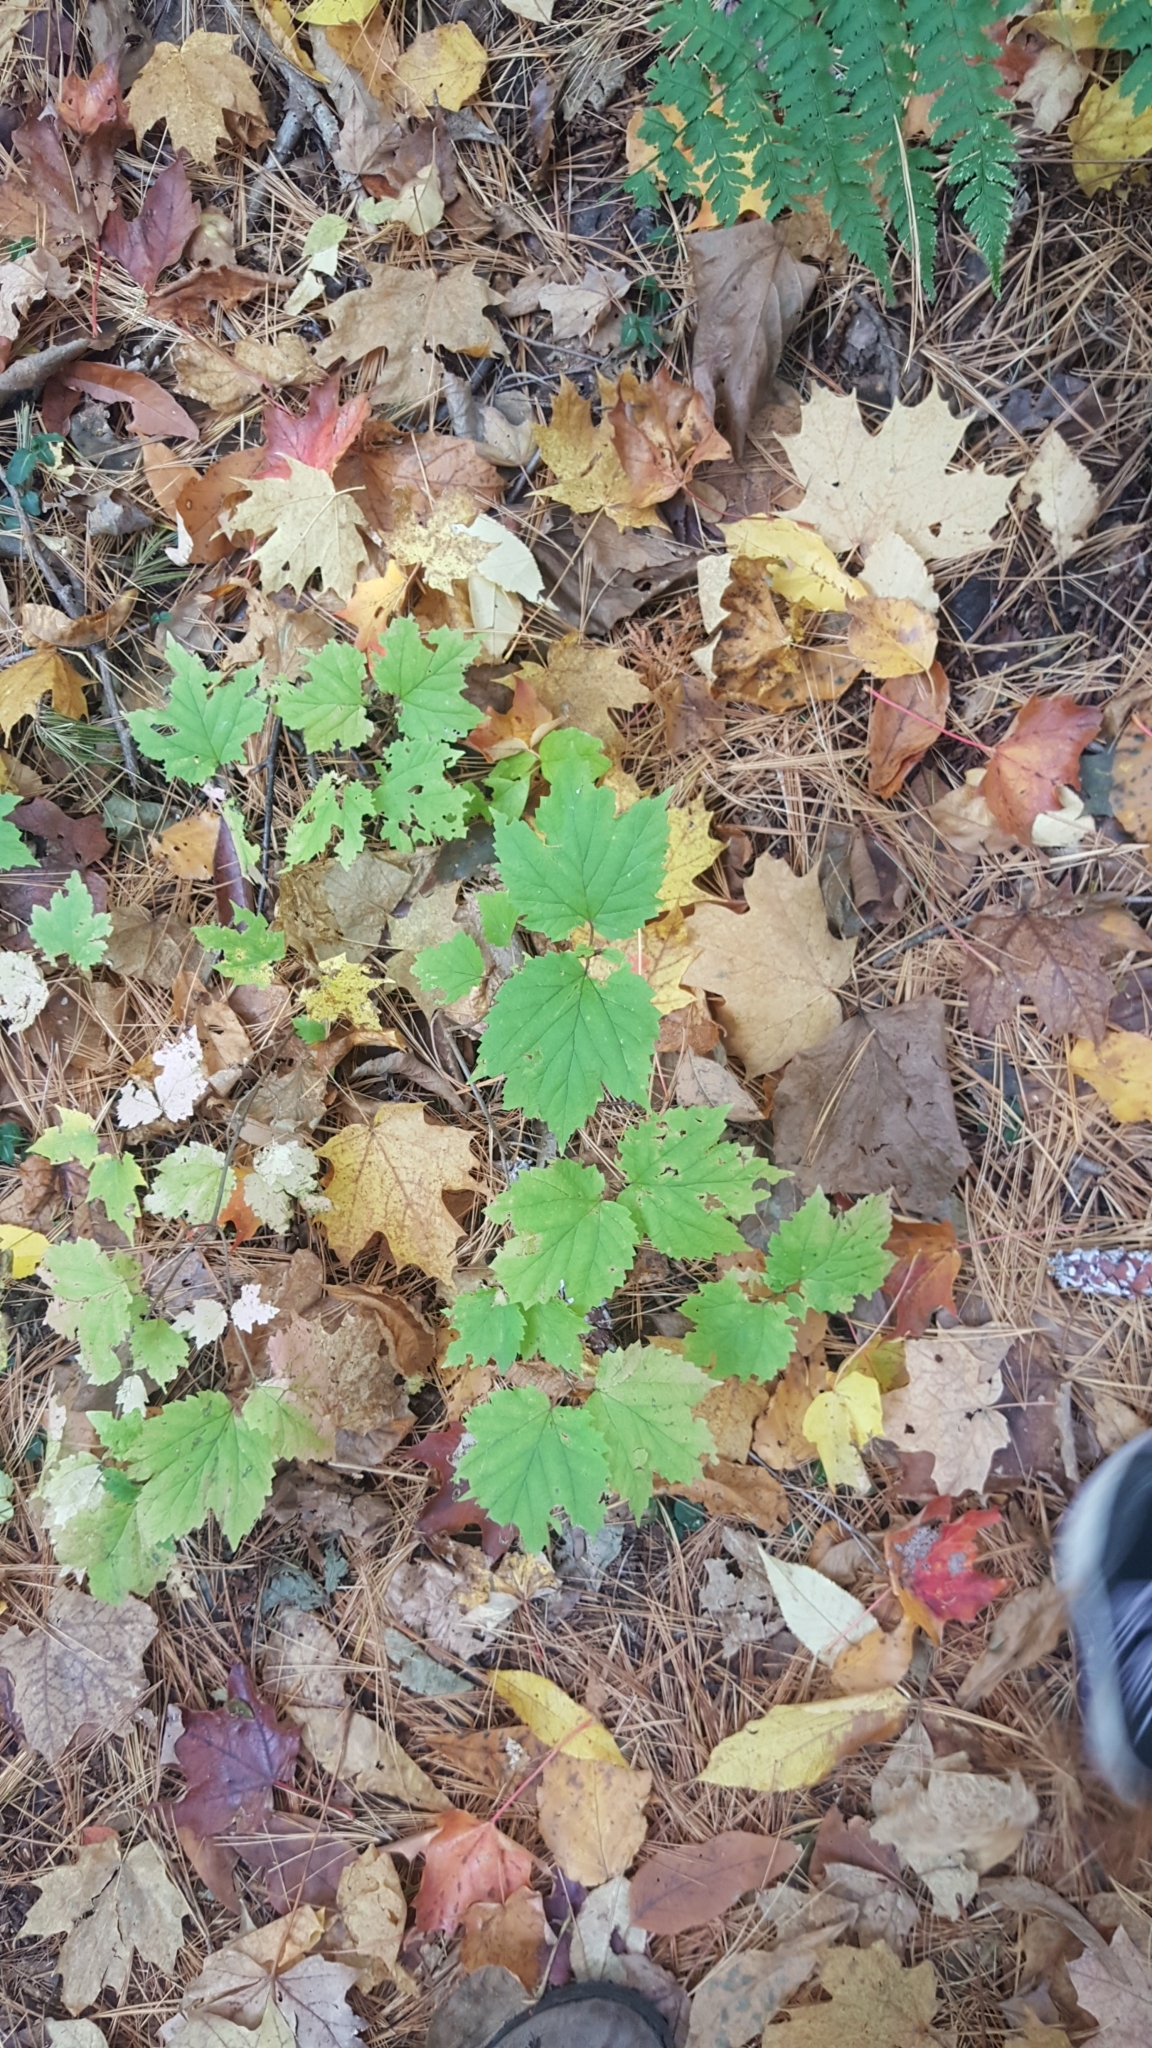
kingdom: Plantae
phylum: Tracheophyta
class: Magnoliopsida
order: Dipsacales
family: Viburnaceae
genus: Viburnum
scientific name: Viburnum acerifolium
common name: Dockmackie
